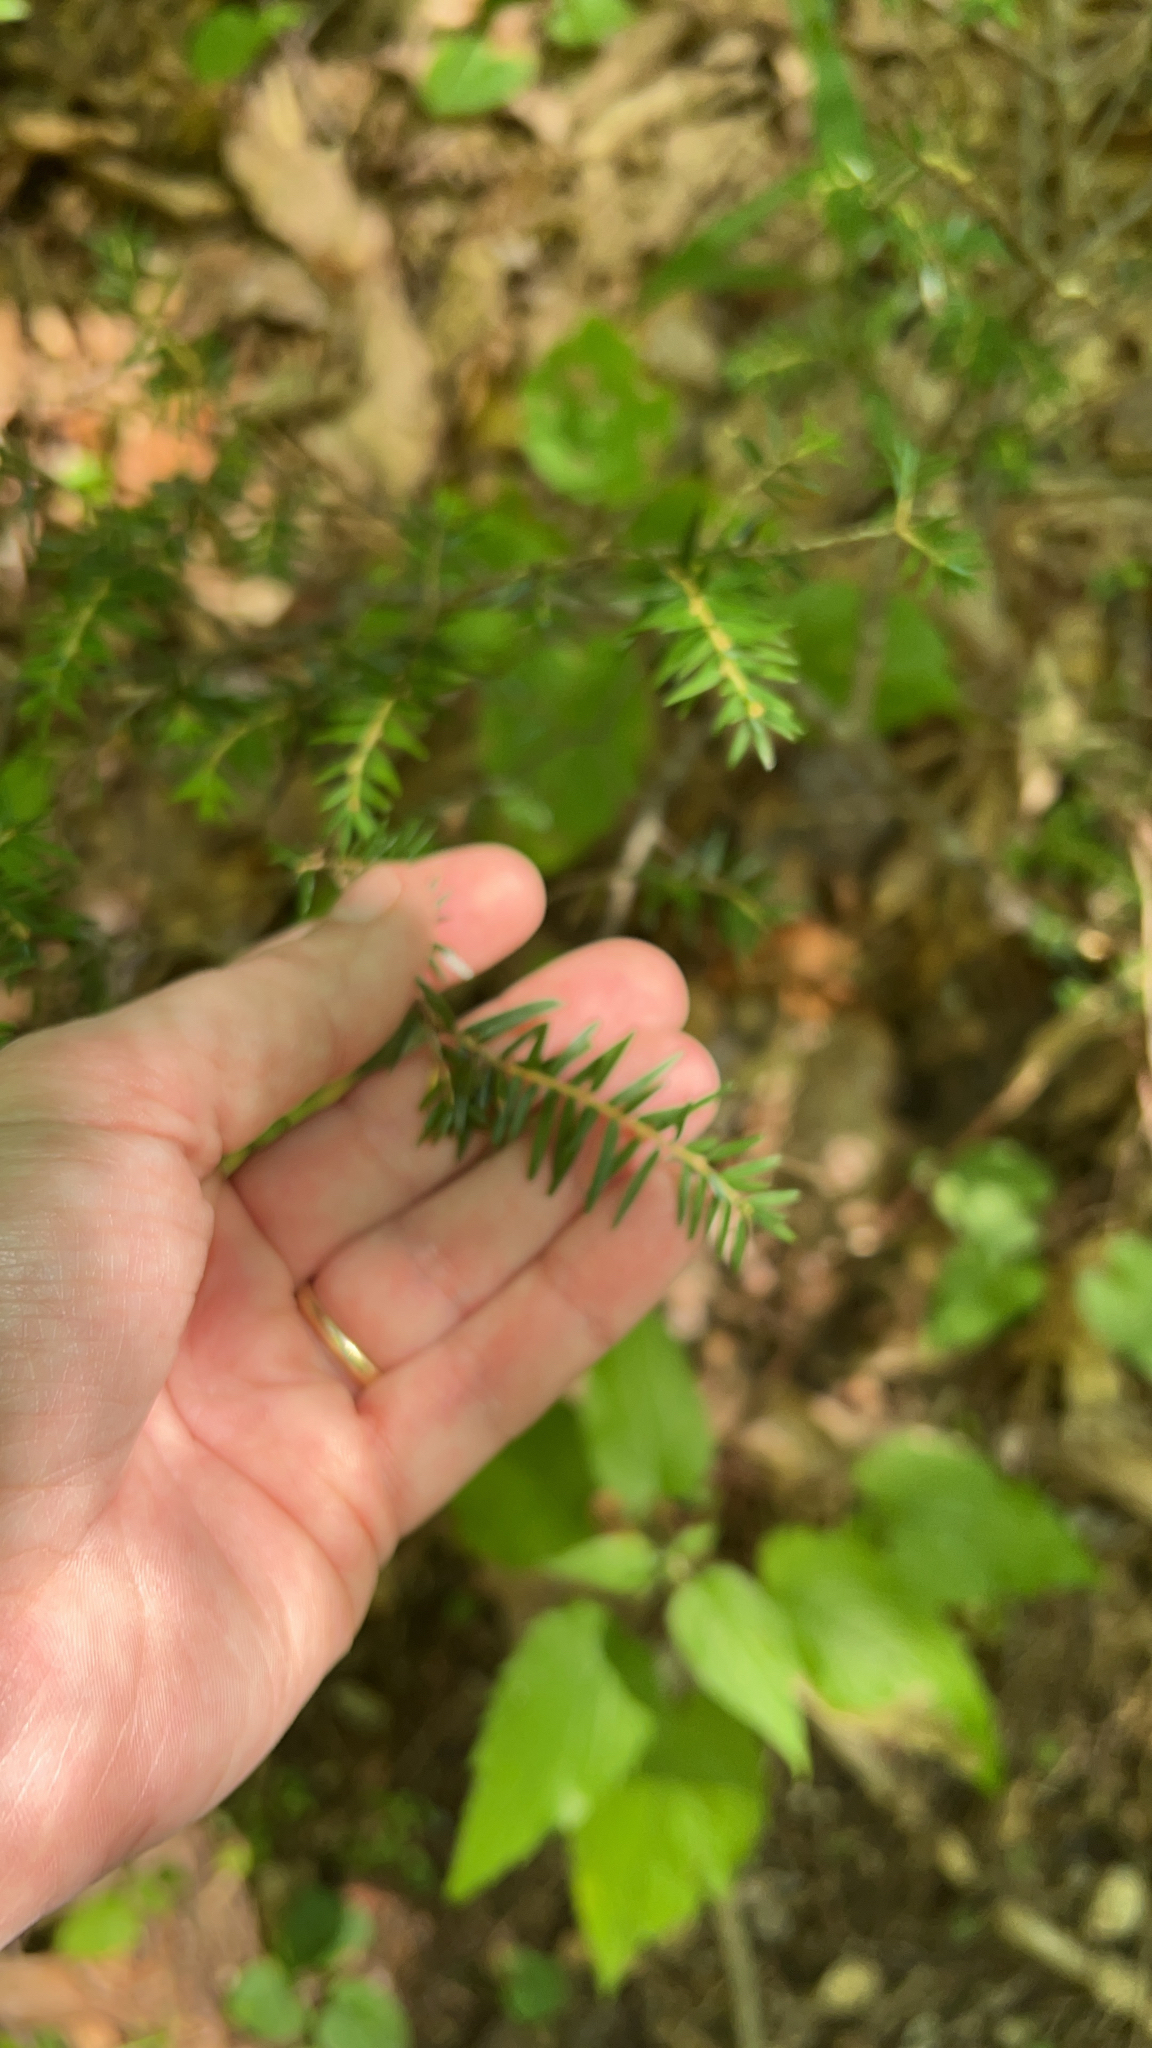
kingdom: Plantae
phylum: Tracheophyta
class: Pinopsida
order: Pinales
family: Pinaceae
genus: Tsuga
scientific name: Tsuga canadensis
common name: Eastern hemlock
